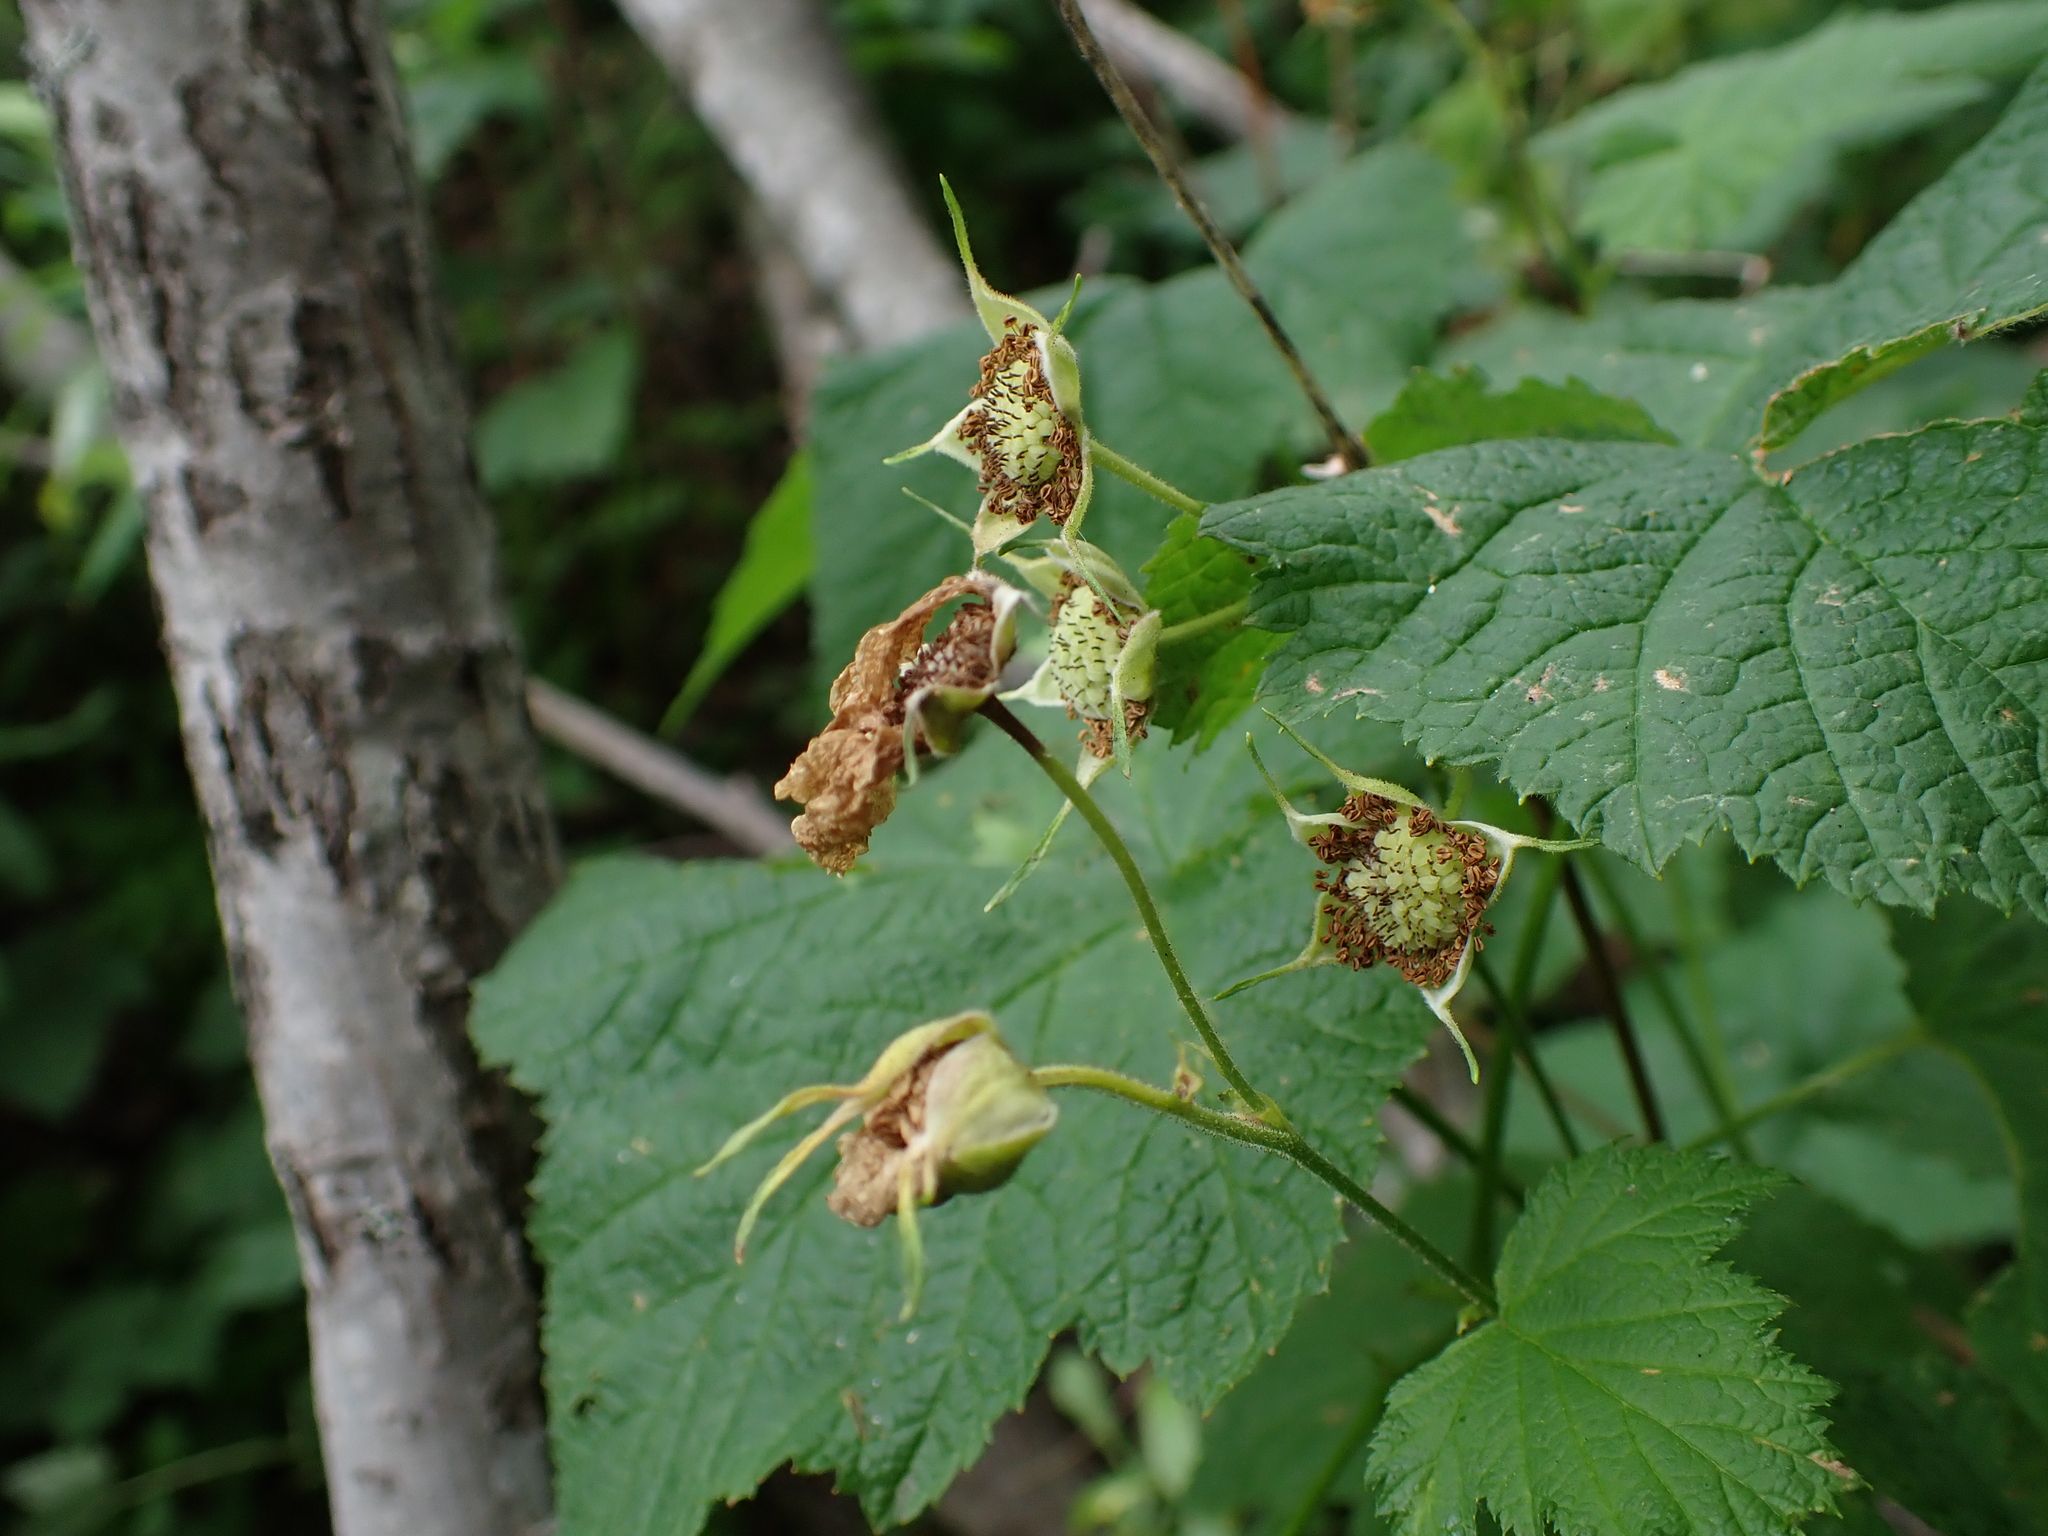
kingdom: Plantae
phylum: Tracheophyta
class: Magnoliopsida
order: Rosales
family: Rosaceae
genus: Rubus
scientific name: Rubus parviflorus
